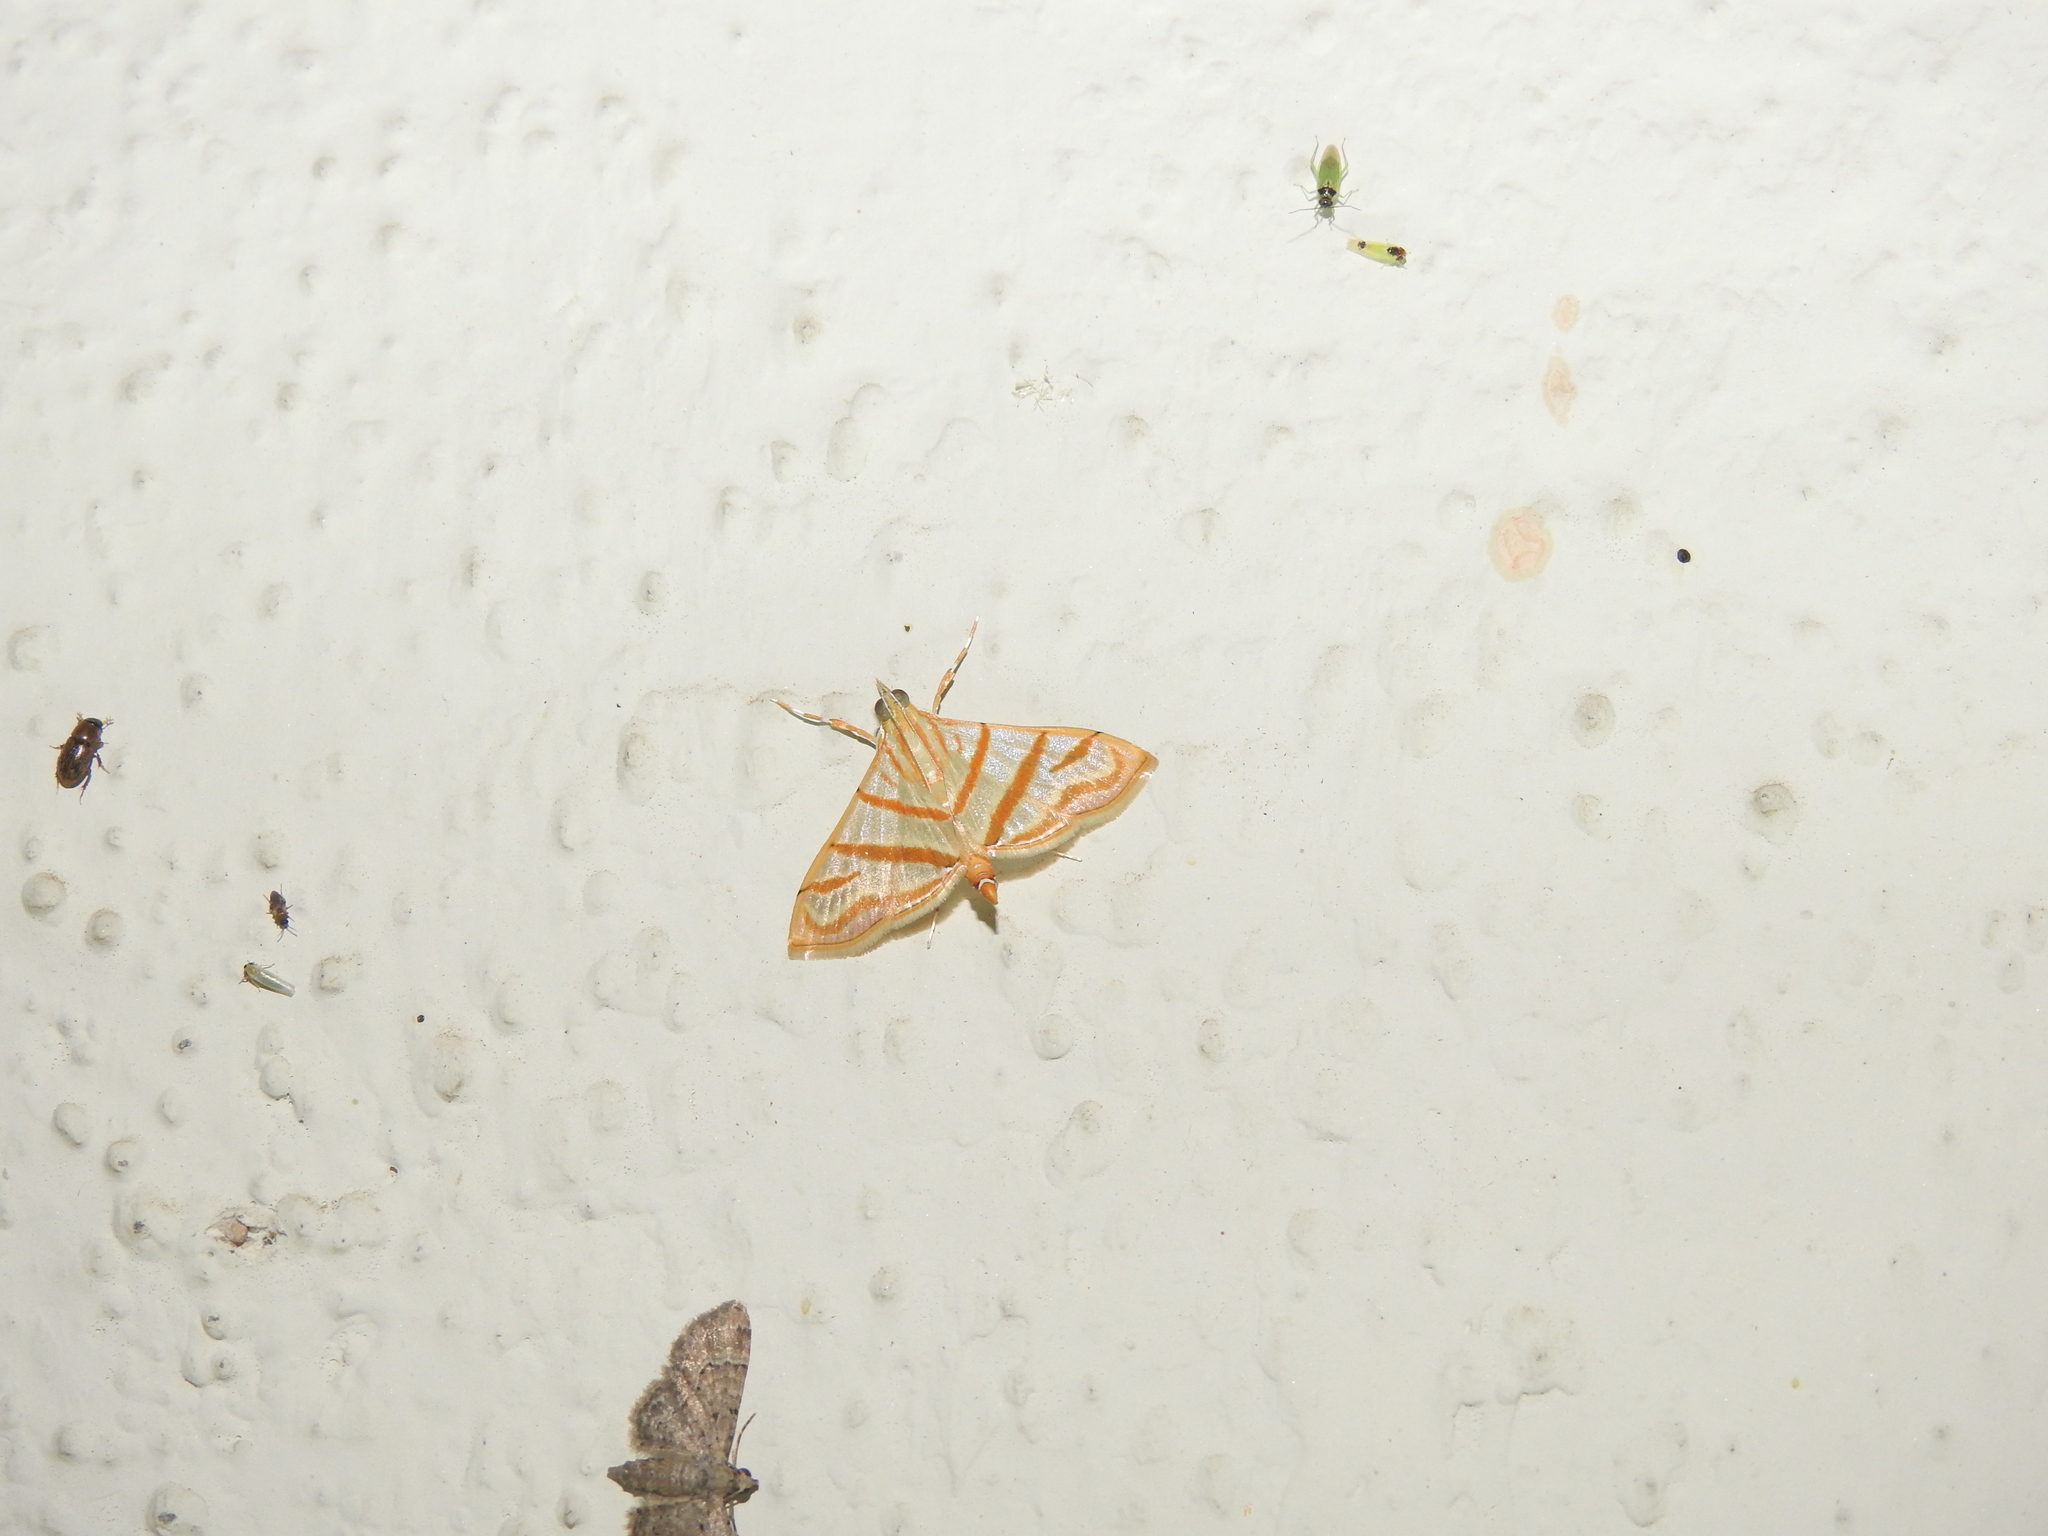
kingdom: Animalia
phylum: Arthropoda
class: Insecta
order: Lepidoptera
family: Crambidae
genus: Pagyda
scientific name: Pagyda salvalis
